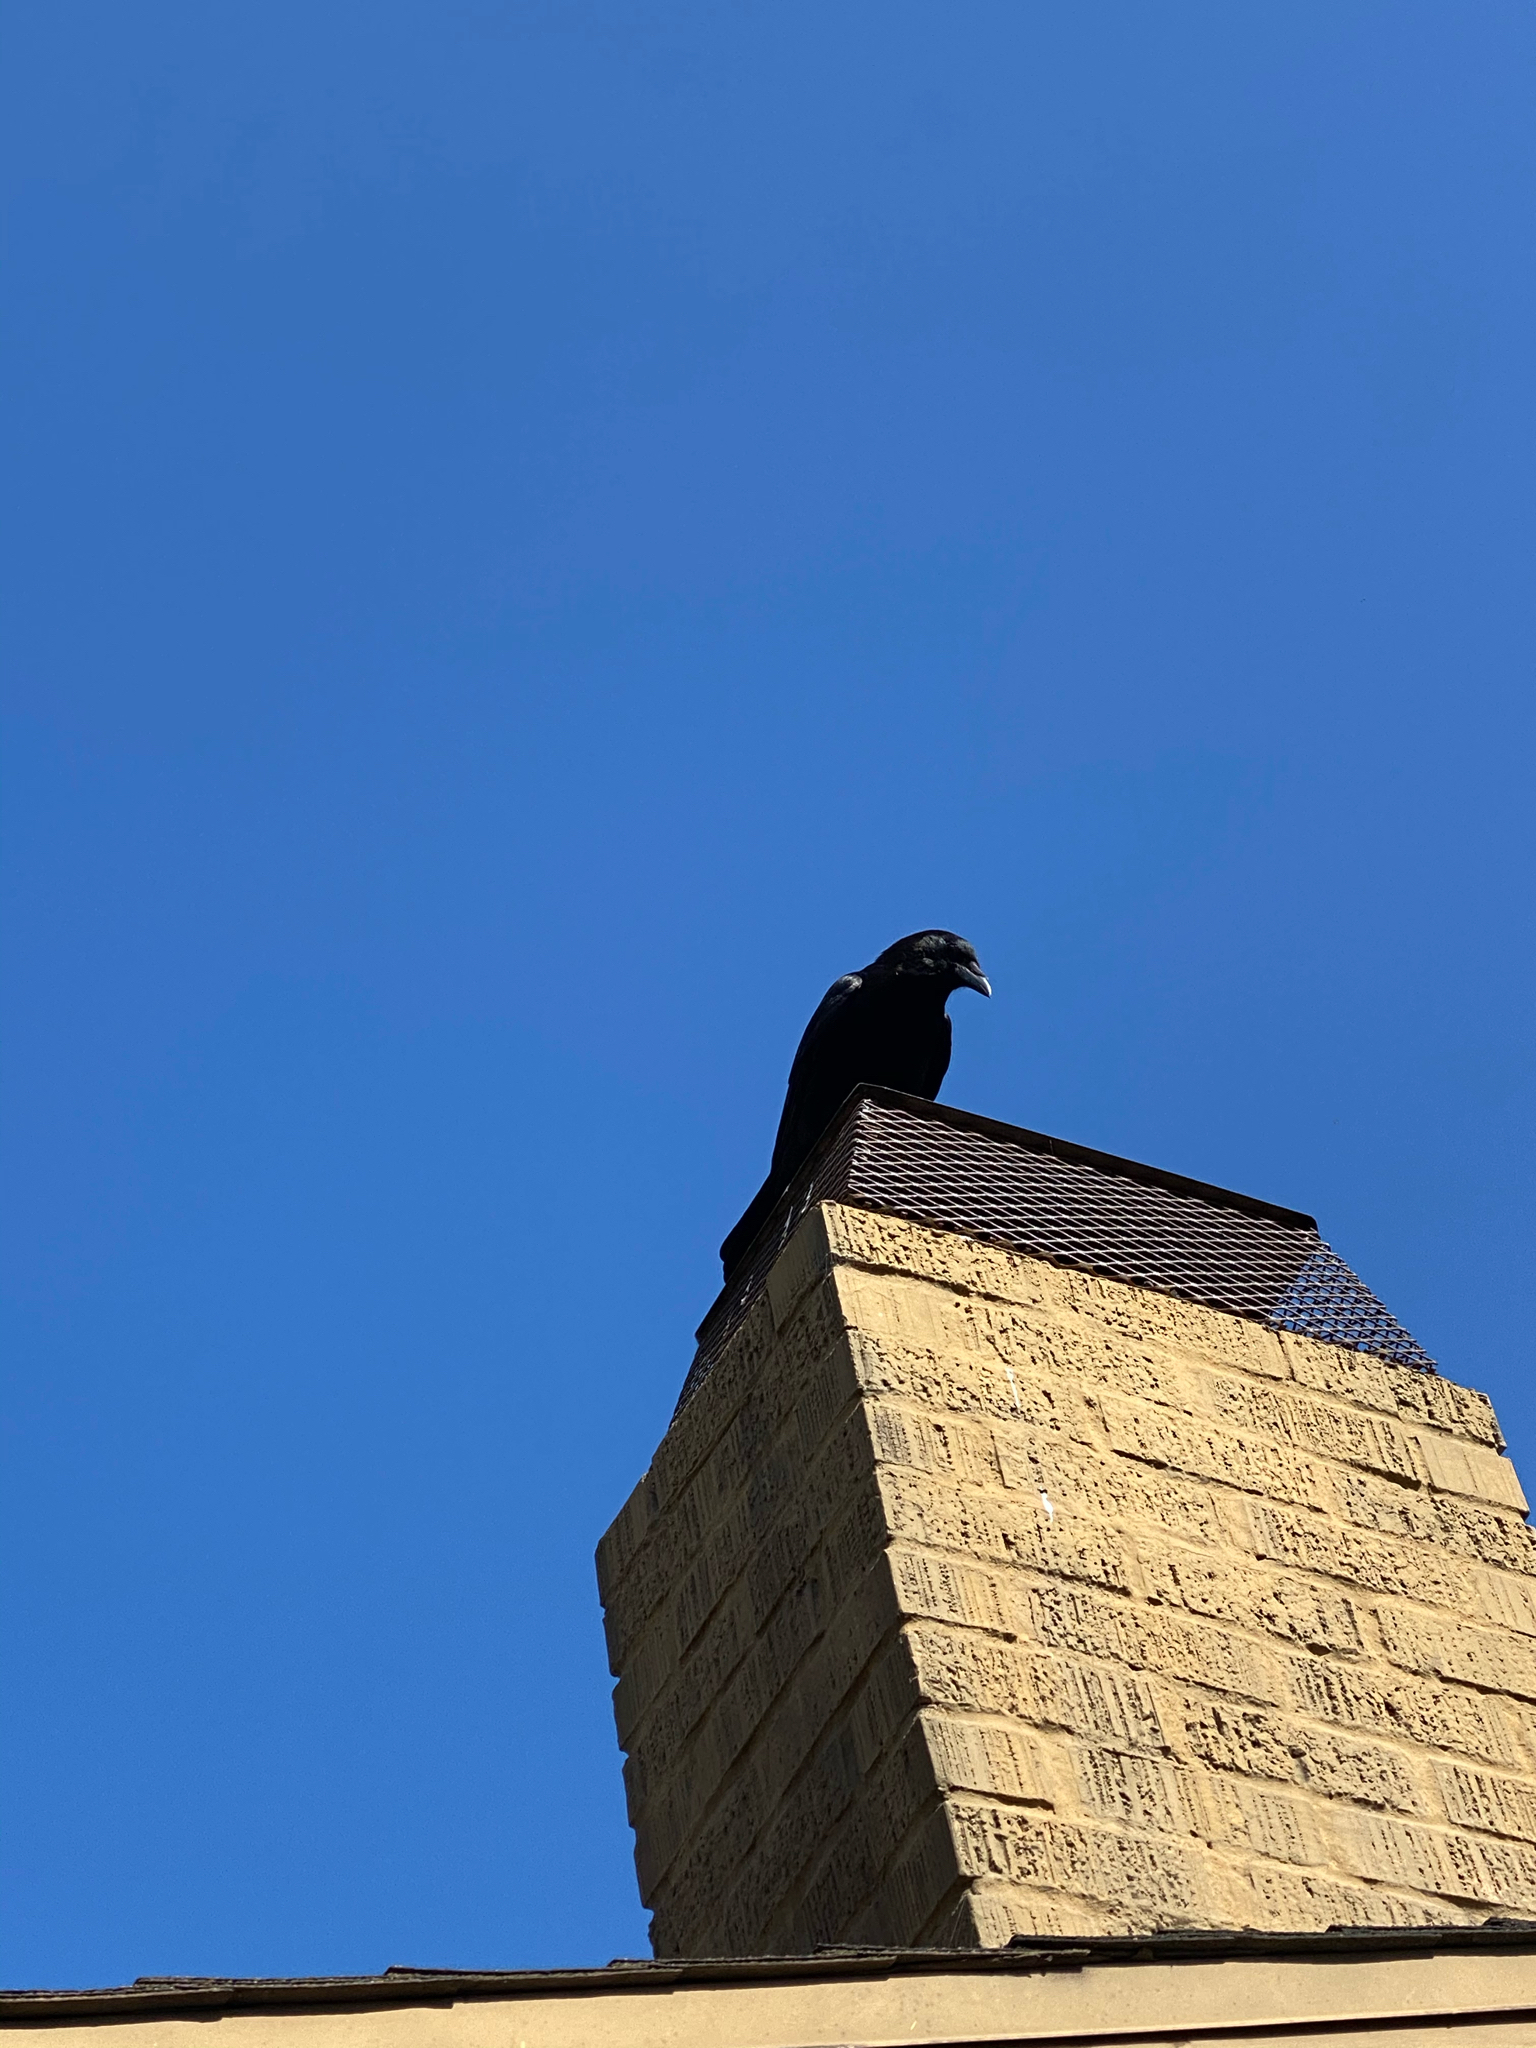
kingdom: Animalia
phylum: Chordata
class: Aves
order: Passeriformes
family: Corvidae
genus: Corvus
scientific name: Corvus brachyrhynchos
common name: American crow
